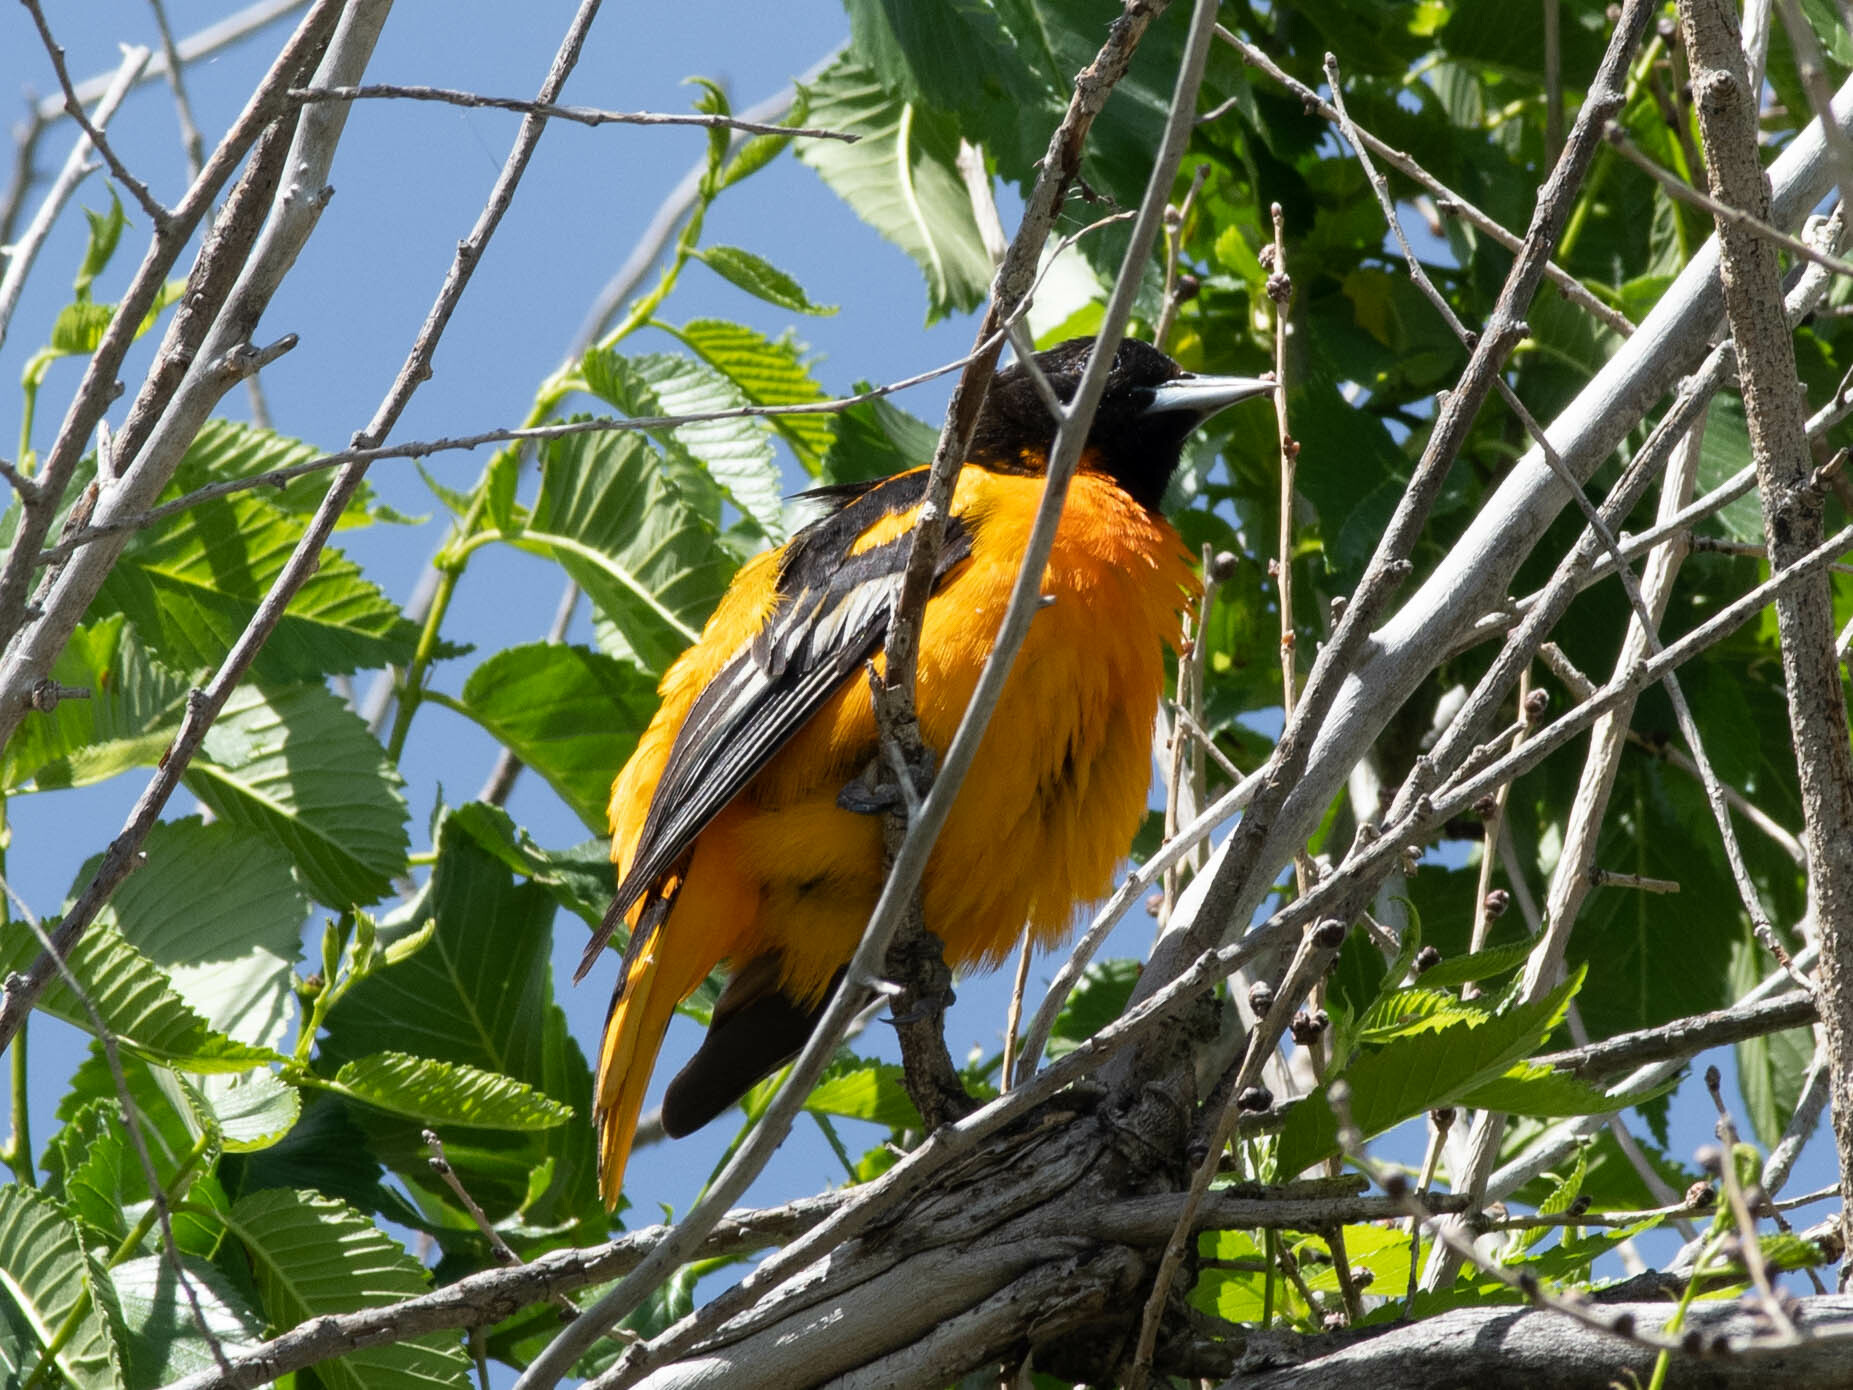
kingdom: Animalia
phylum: Chordata
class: Aves
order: Passeriformes
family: Icteridae
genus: Icterus
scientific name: Icterus galbula
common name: Baltimore oriole
